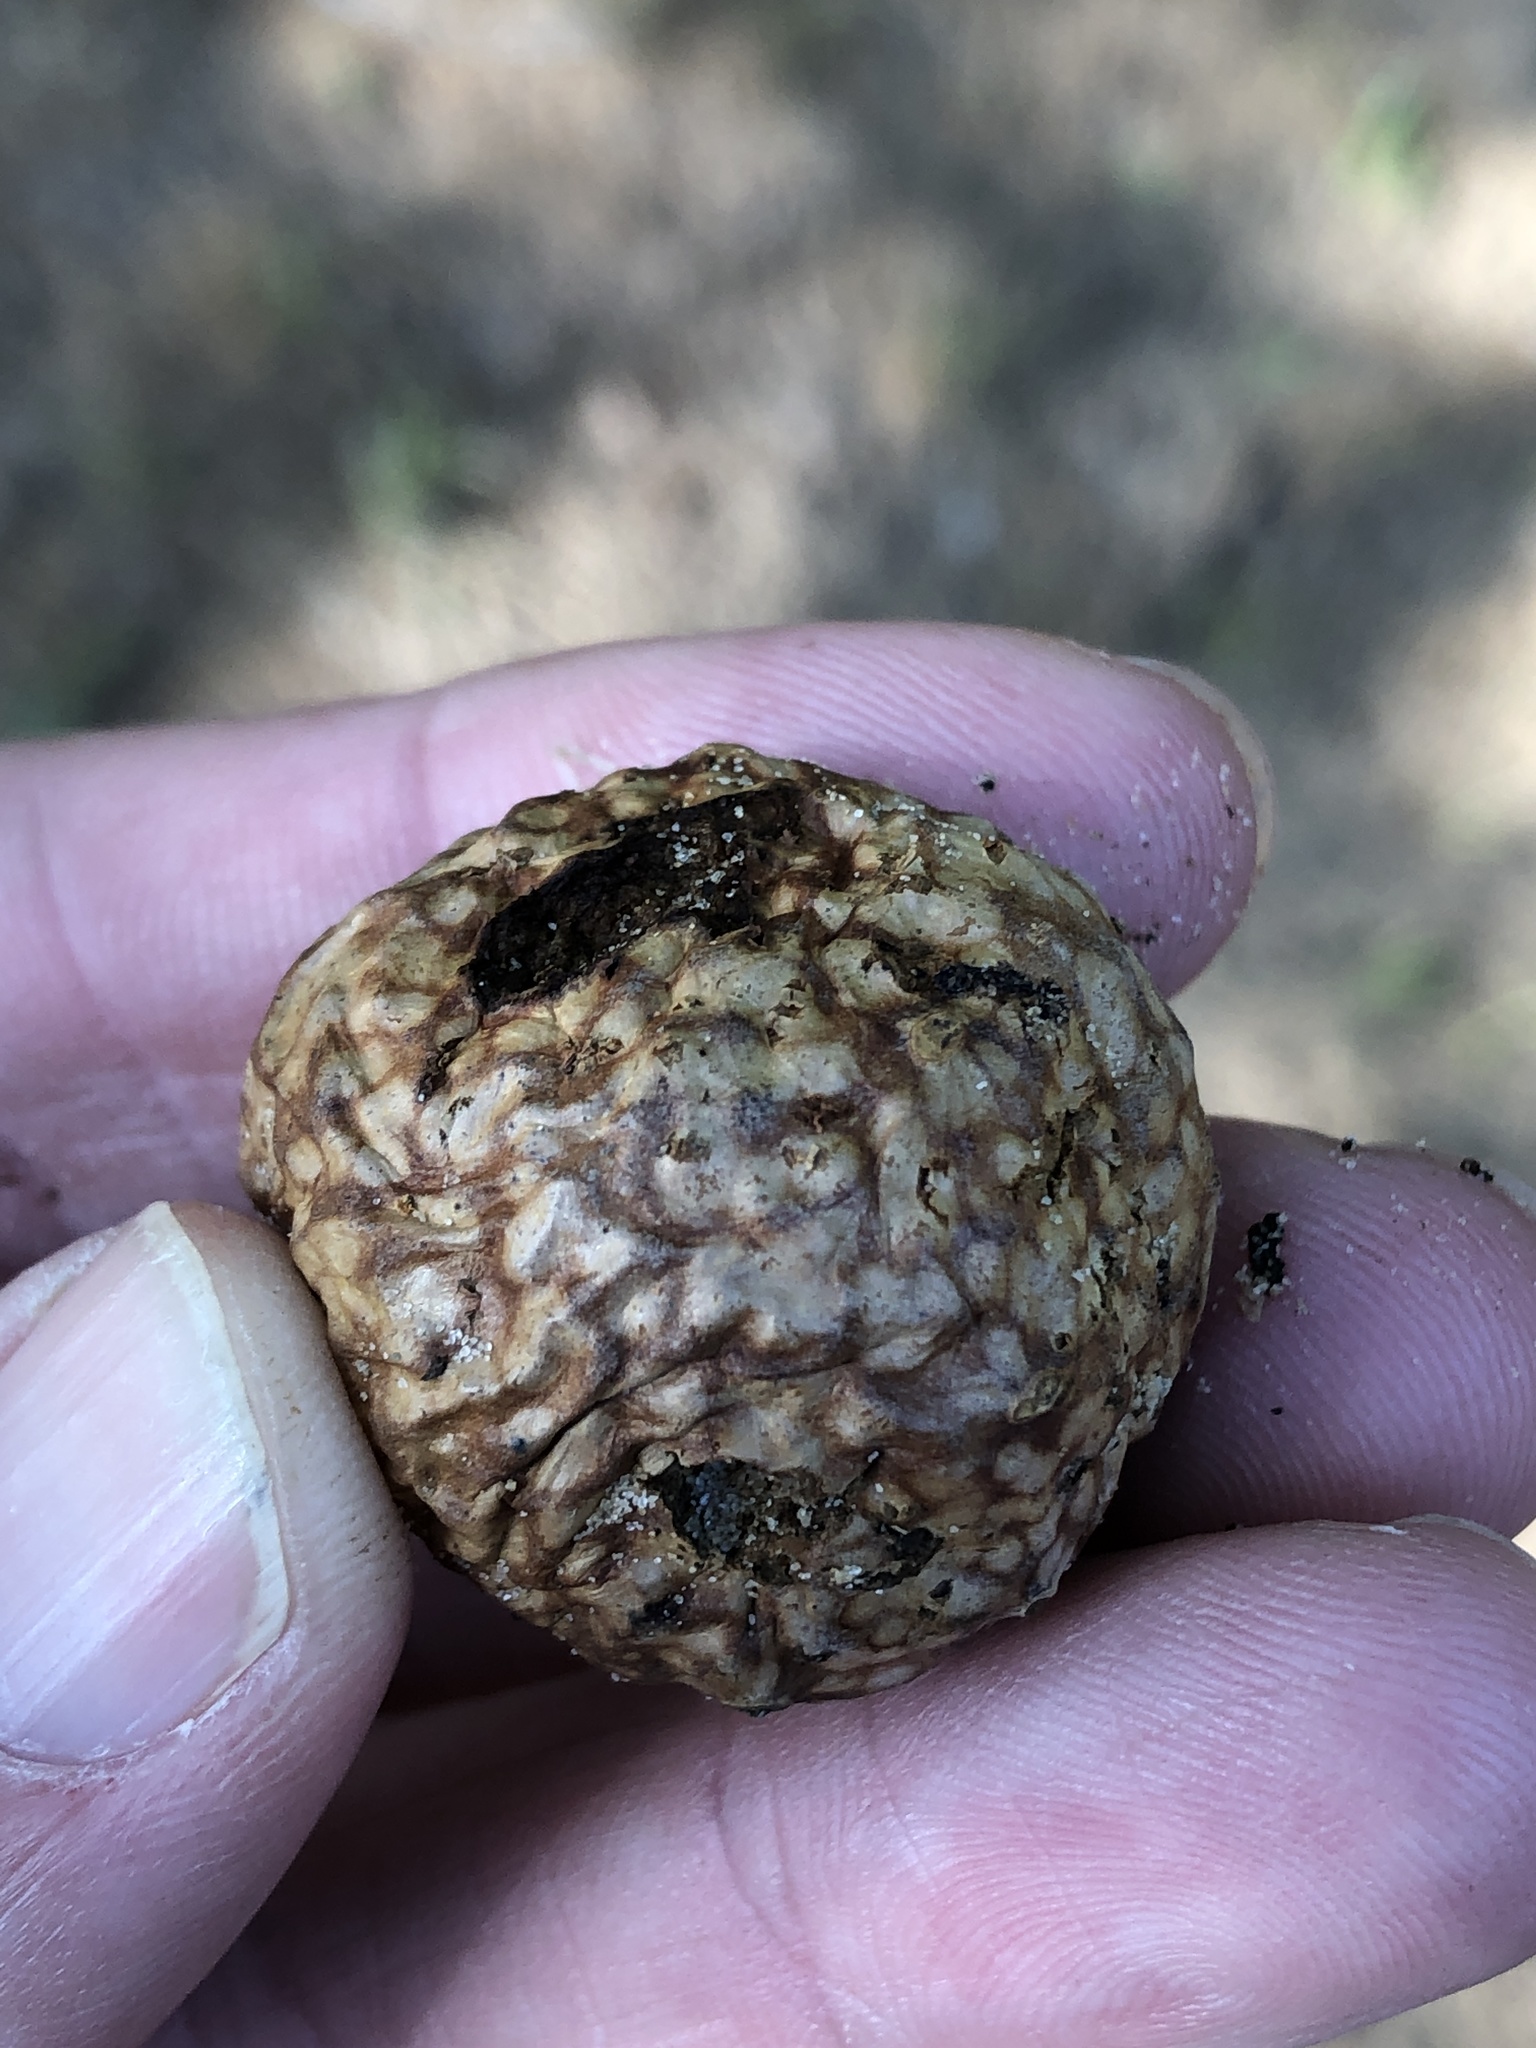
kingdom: Animalia
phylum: Arthropoda
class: Insecta
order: Hymenoptera
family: Cynipidae
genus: Amphibolips
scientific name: Amphibolips
